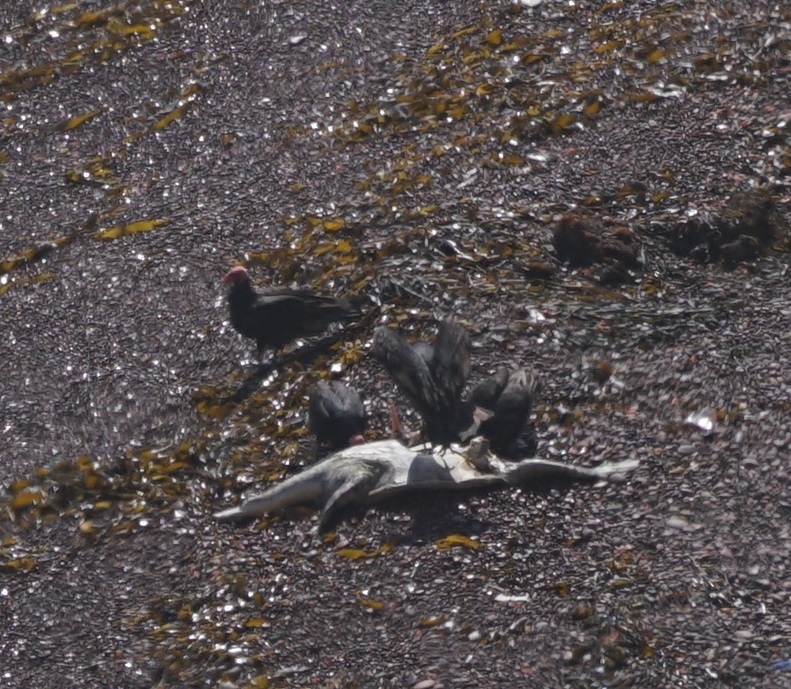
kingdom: Animalia
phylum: Chordata
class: Aves
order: Accipitriformes
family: Cathartidae
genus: Cathartes
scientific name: Cathartes aura
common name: Turkey vulture
